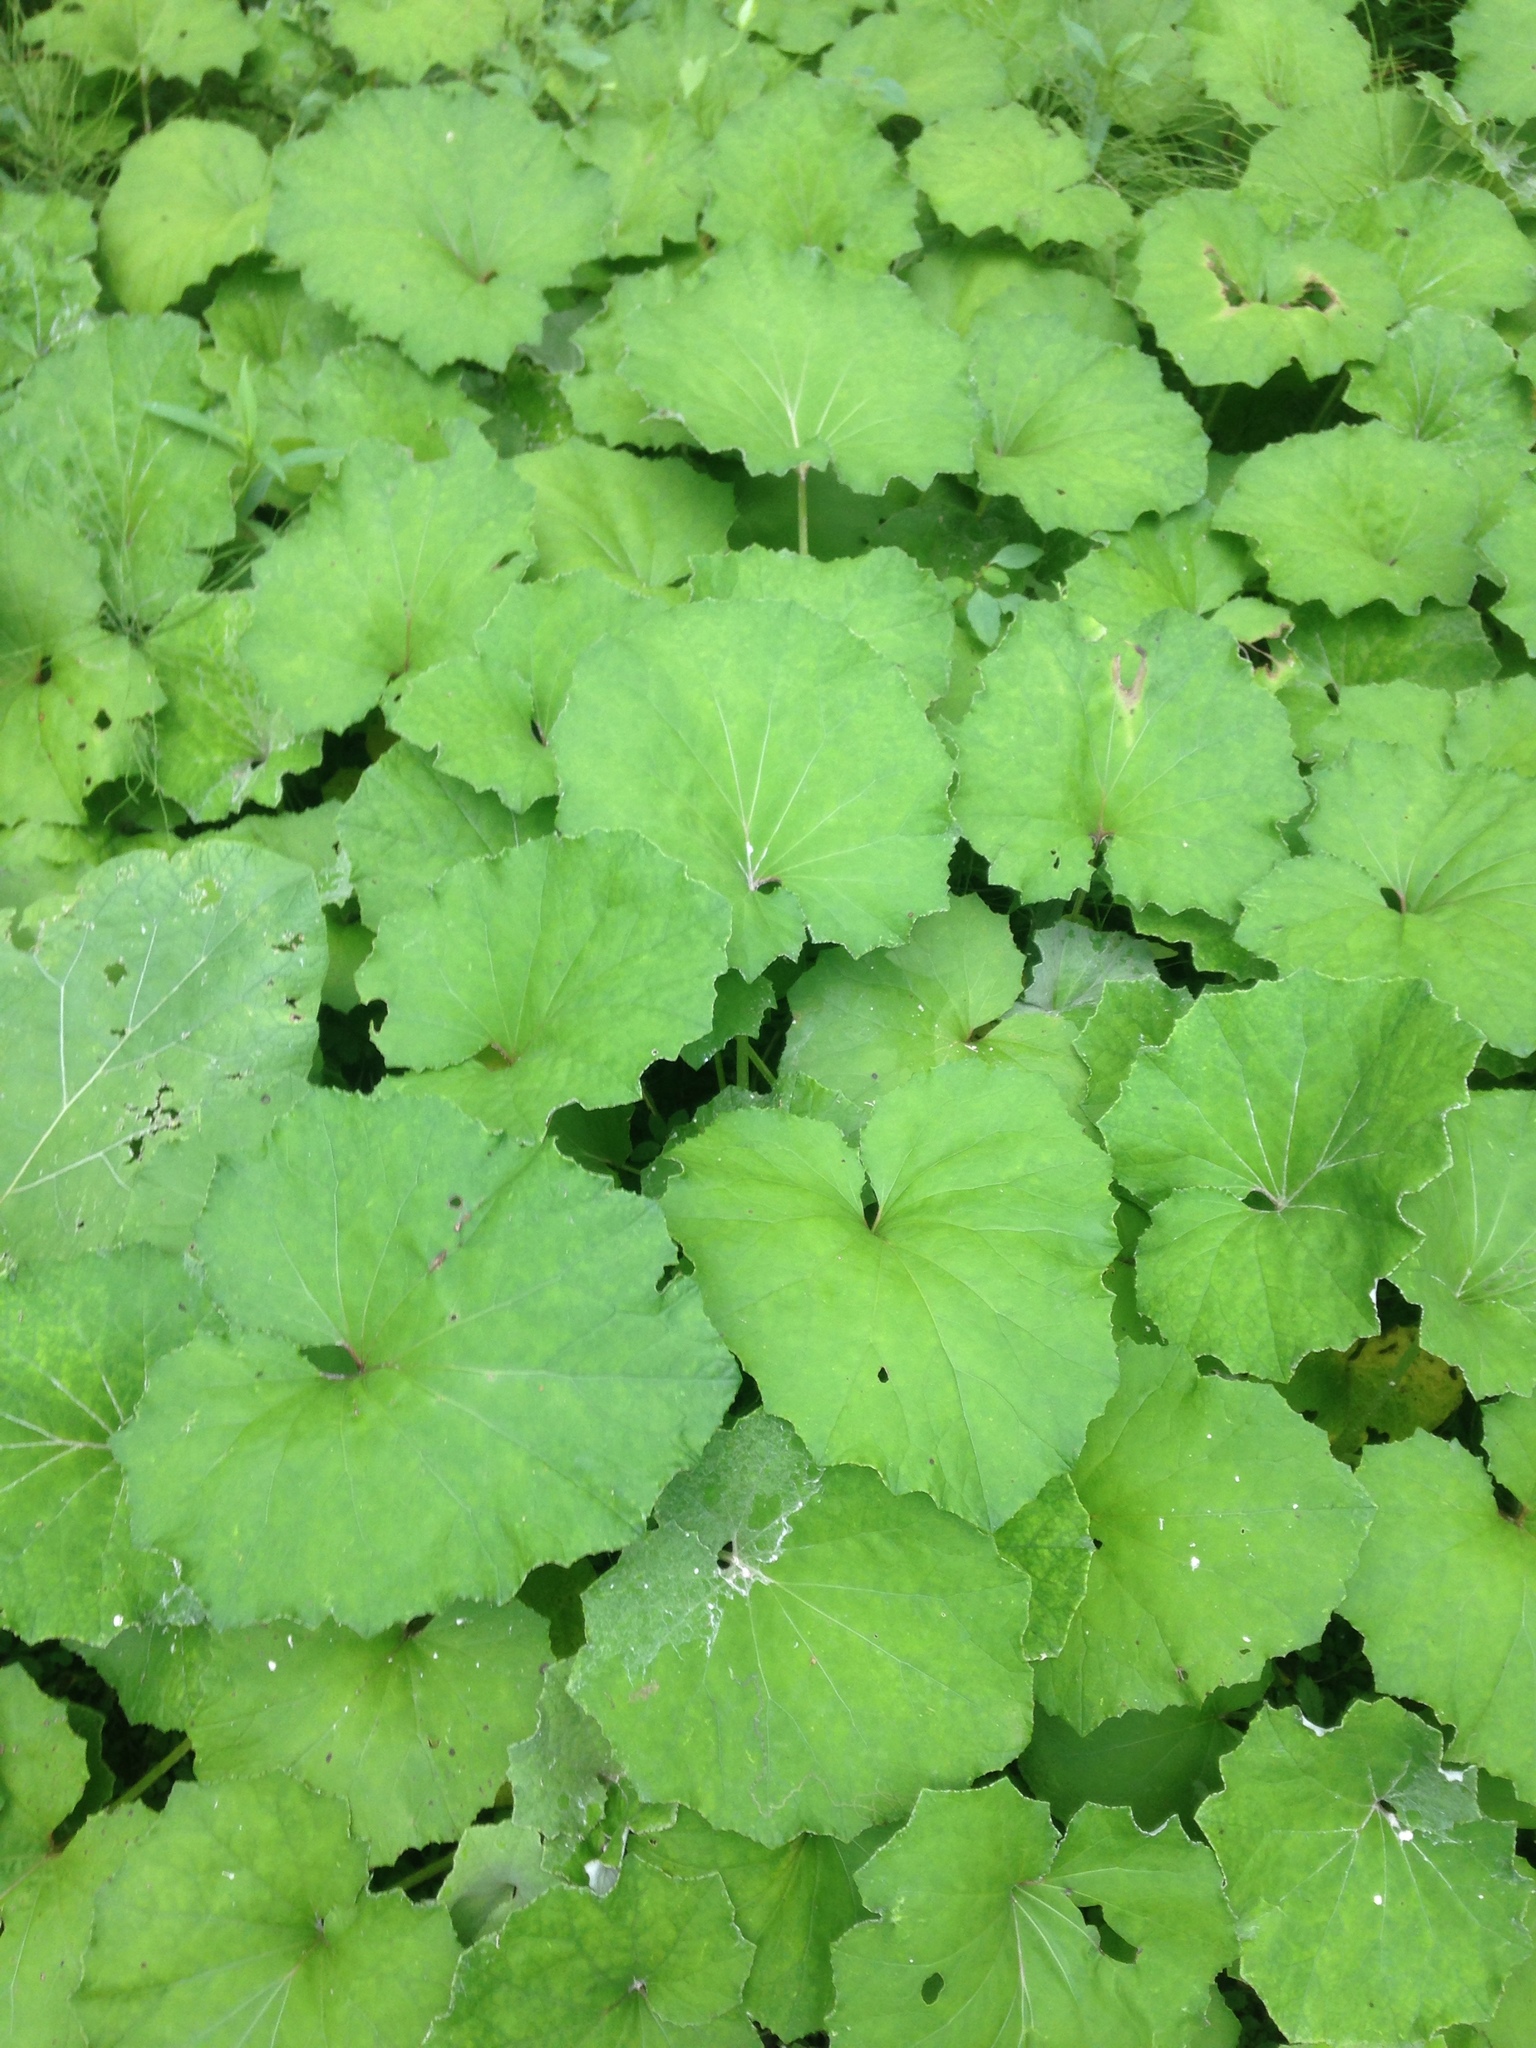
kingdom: Plantae
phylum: Tracheophyta
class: Magnoliopsida
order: Asterales
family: Asteraceae
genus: Tussilago
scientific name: Tussilago farfara
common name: Coltsfoot
